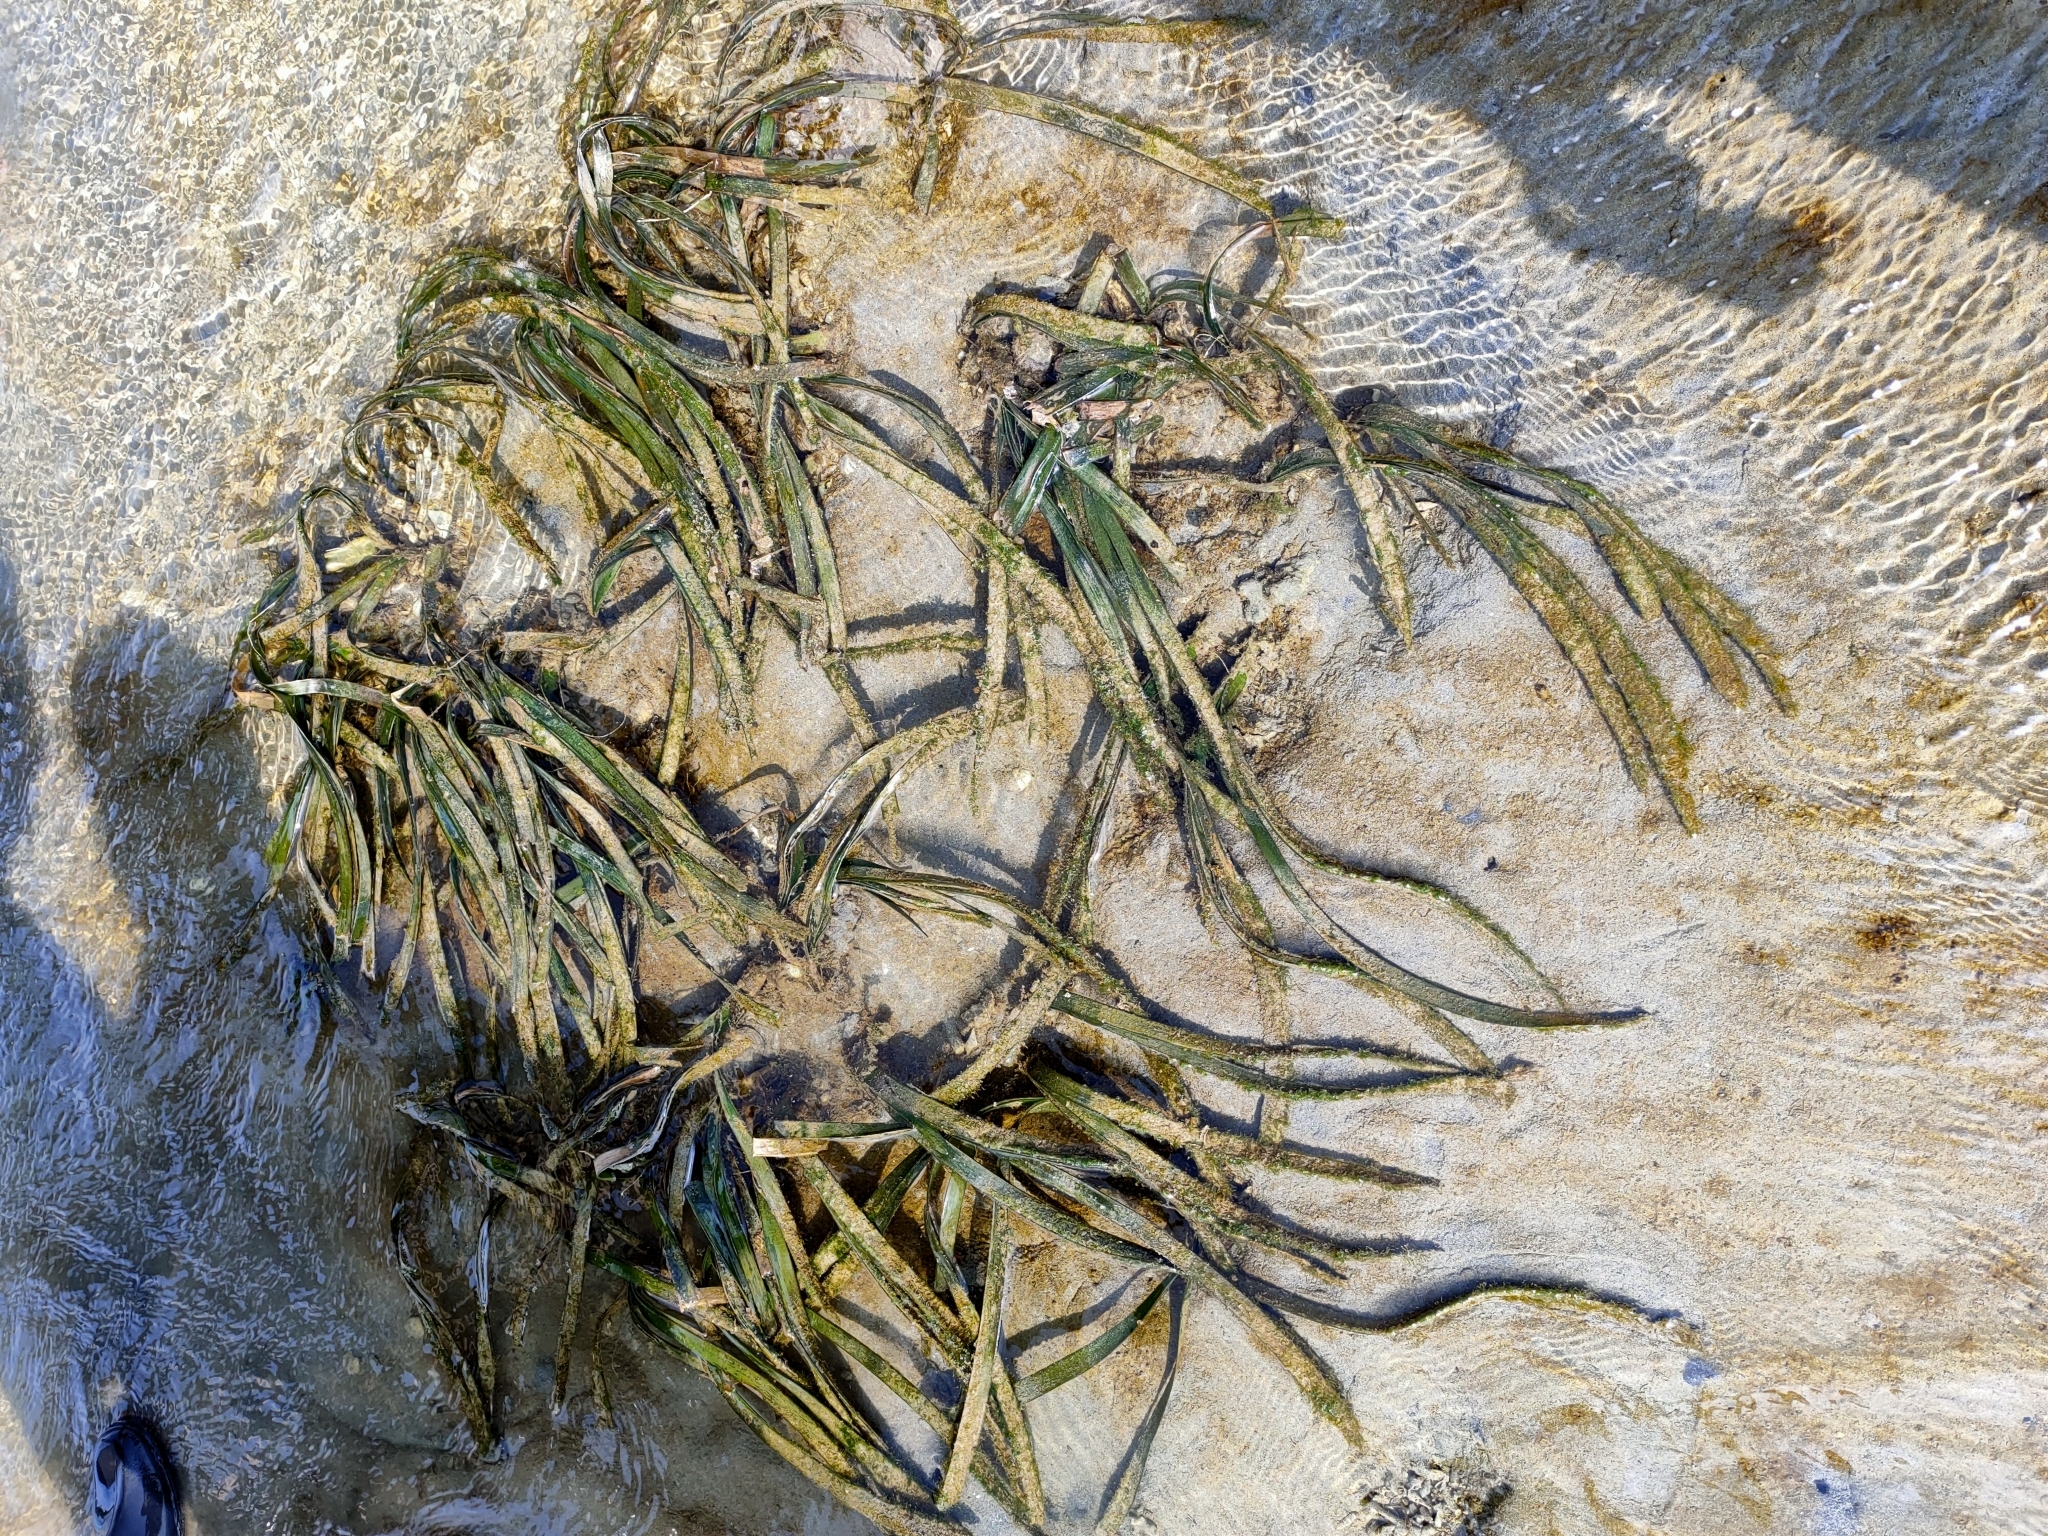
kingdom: Plantae
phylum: Tracheophyta
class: Liliopsida
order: Alismatales
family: Hydrocharitaceae
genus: Enhalus
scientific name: Enhalus acoroides
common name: Species code: ea
